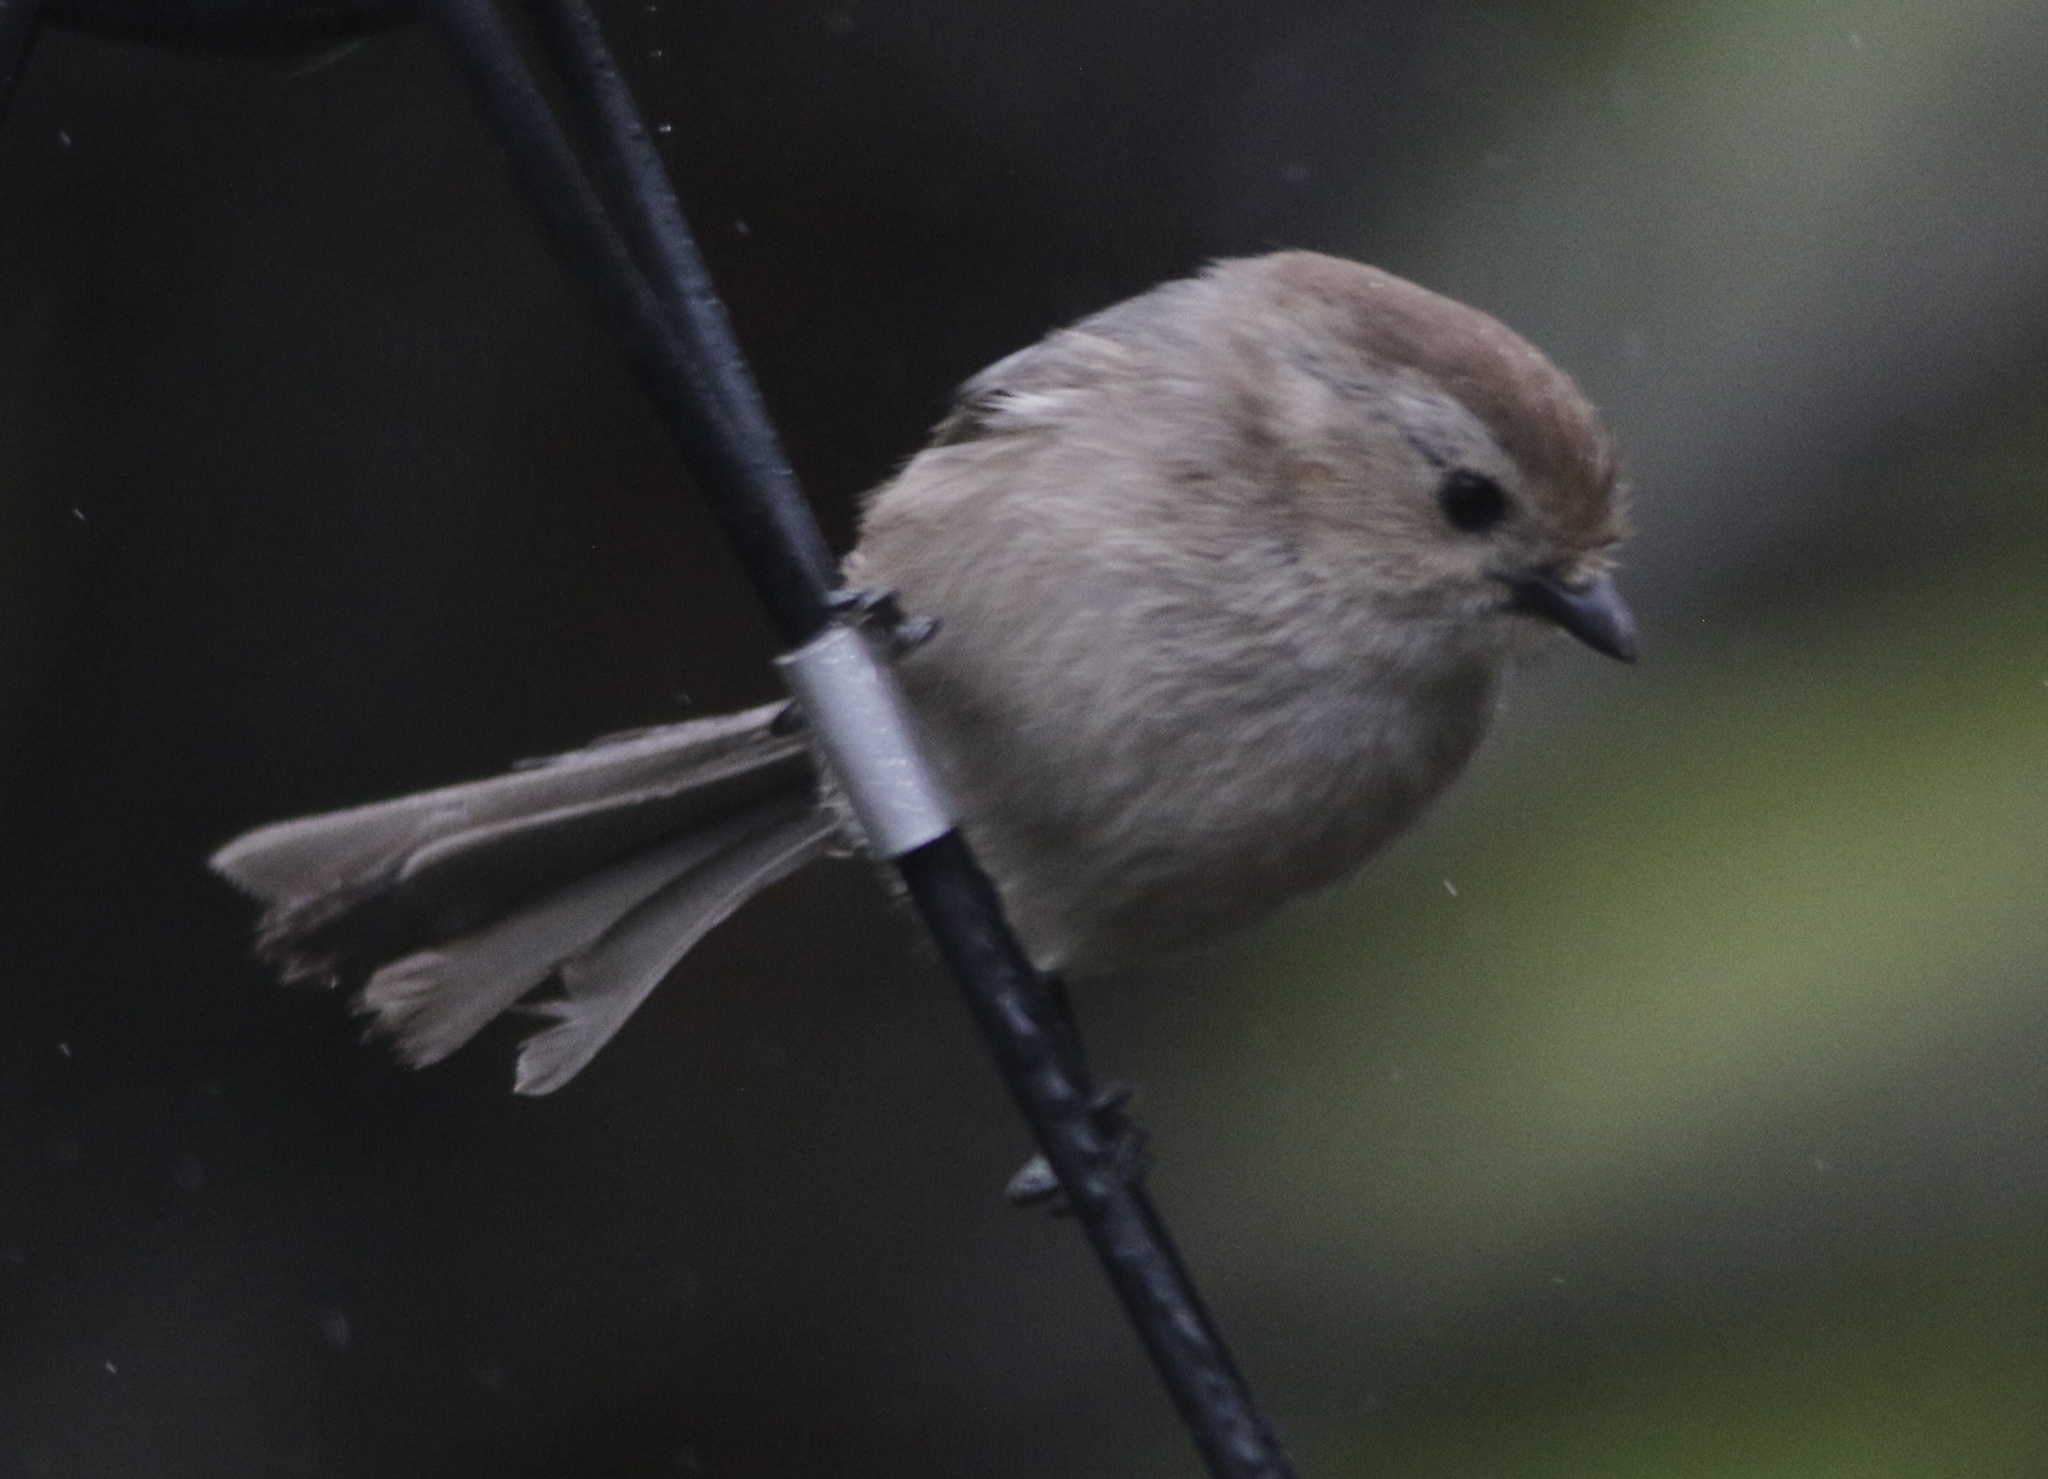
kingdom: Animalia
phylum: Chordata
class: Aves
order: Passeriformes
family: Aegithalidae
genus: Psaltriparus
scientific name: Psaltriparus minimus
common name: American bushtit
